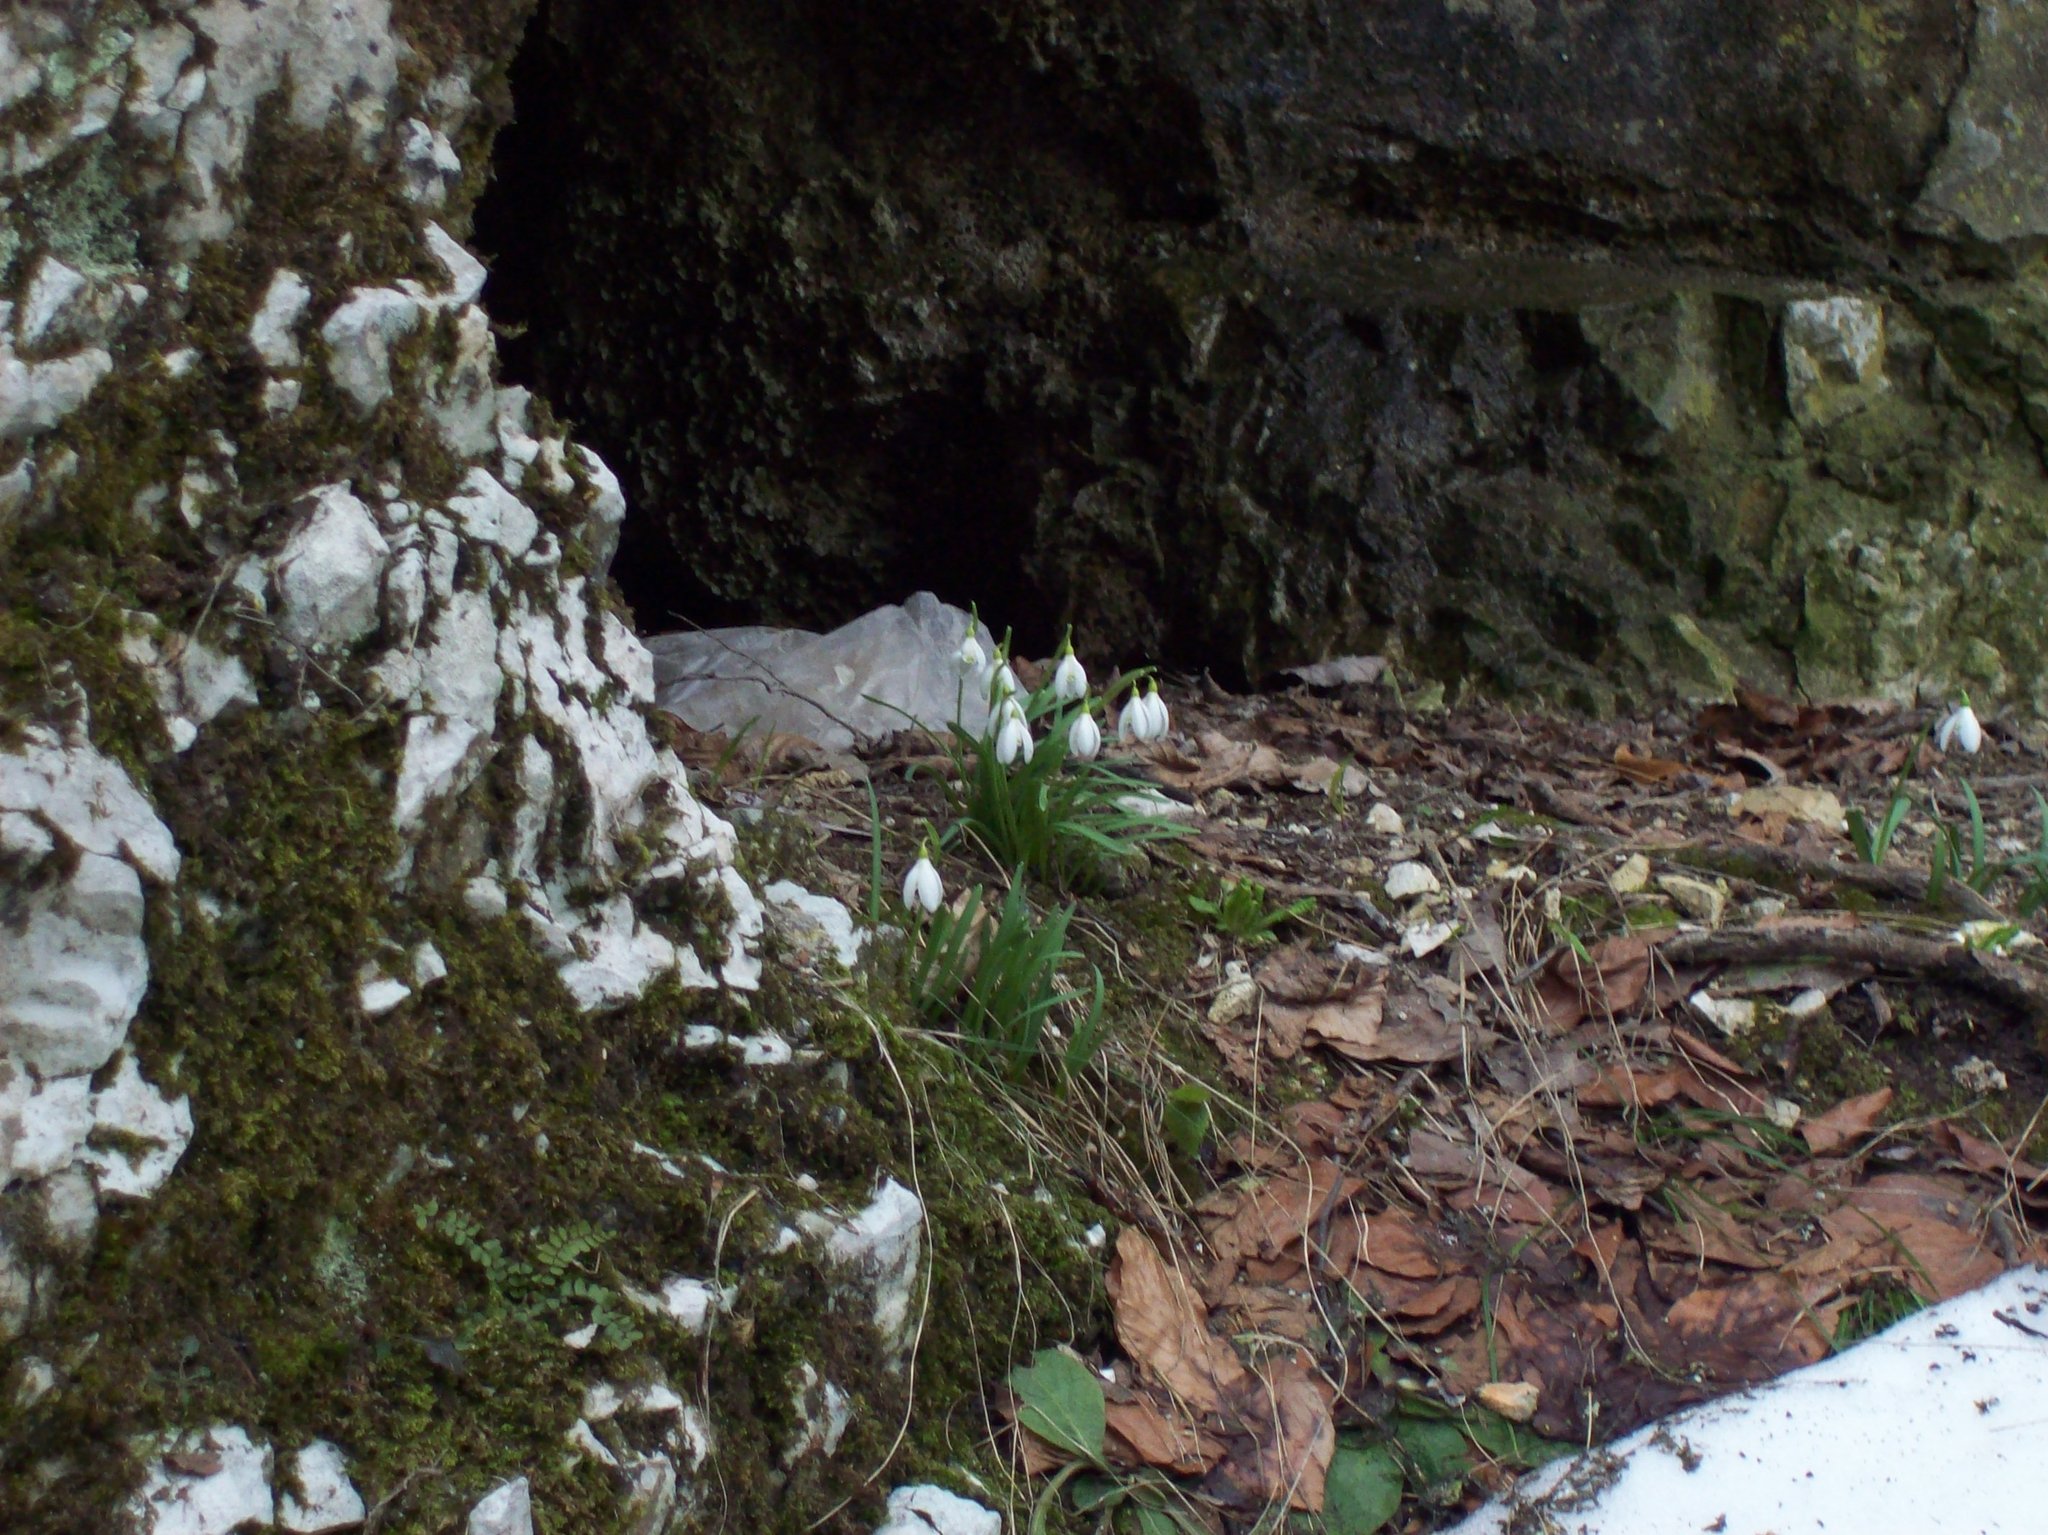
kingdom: Plantae
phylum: Tracheophyta
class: Liliopsida
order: Asparagales
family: Amaryllidaceae
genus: Galanthus
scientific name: Galanthus nivalis
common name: Snowdrop
